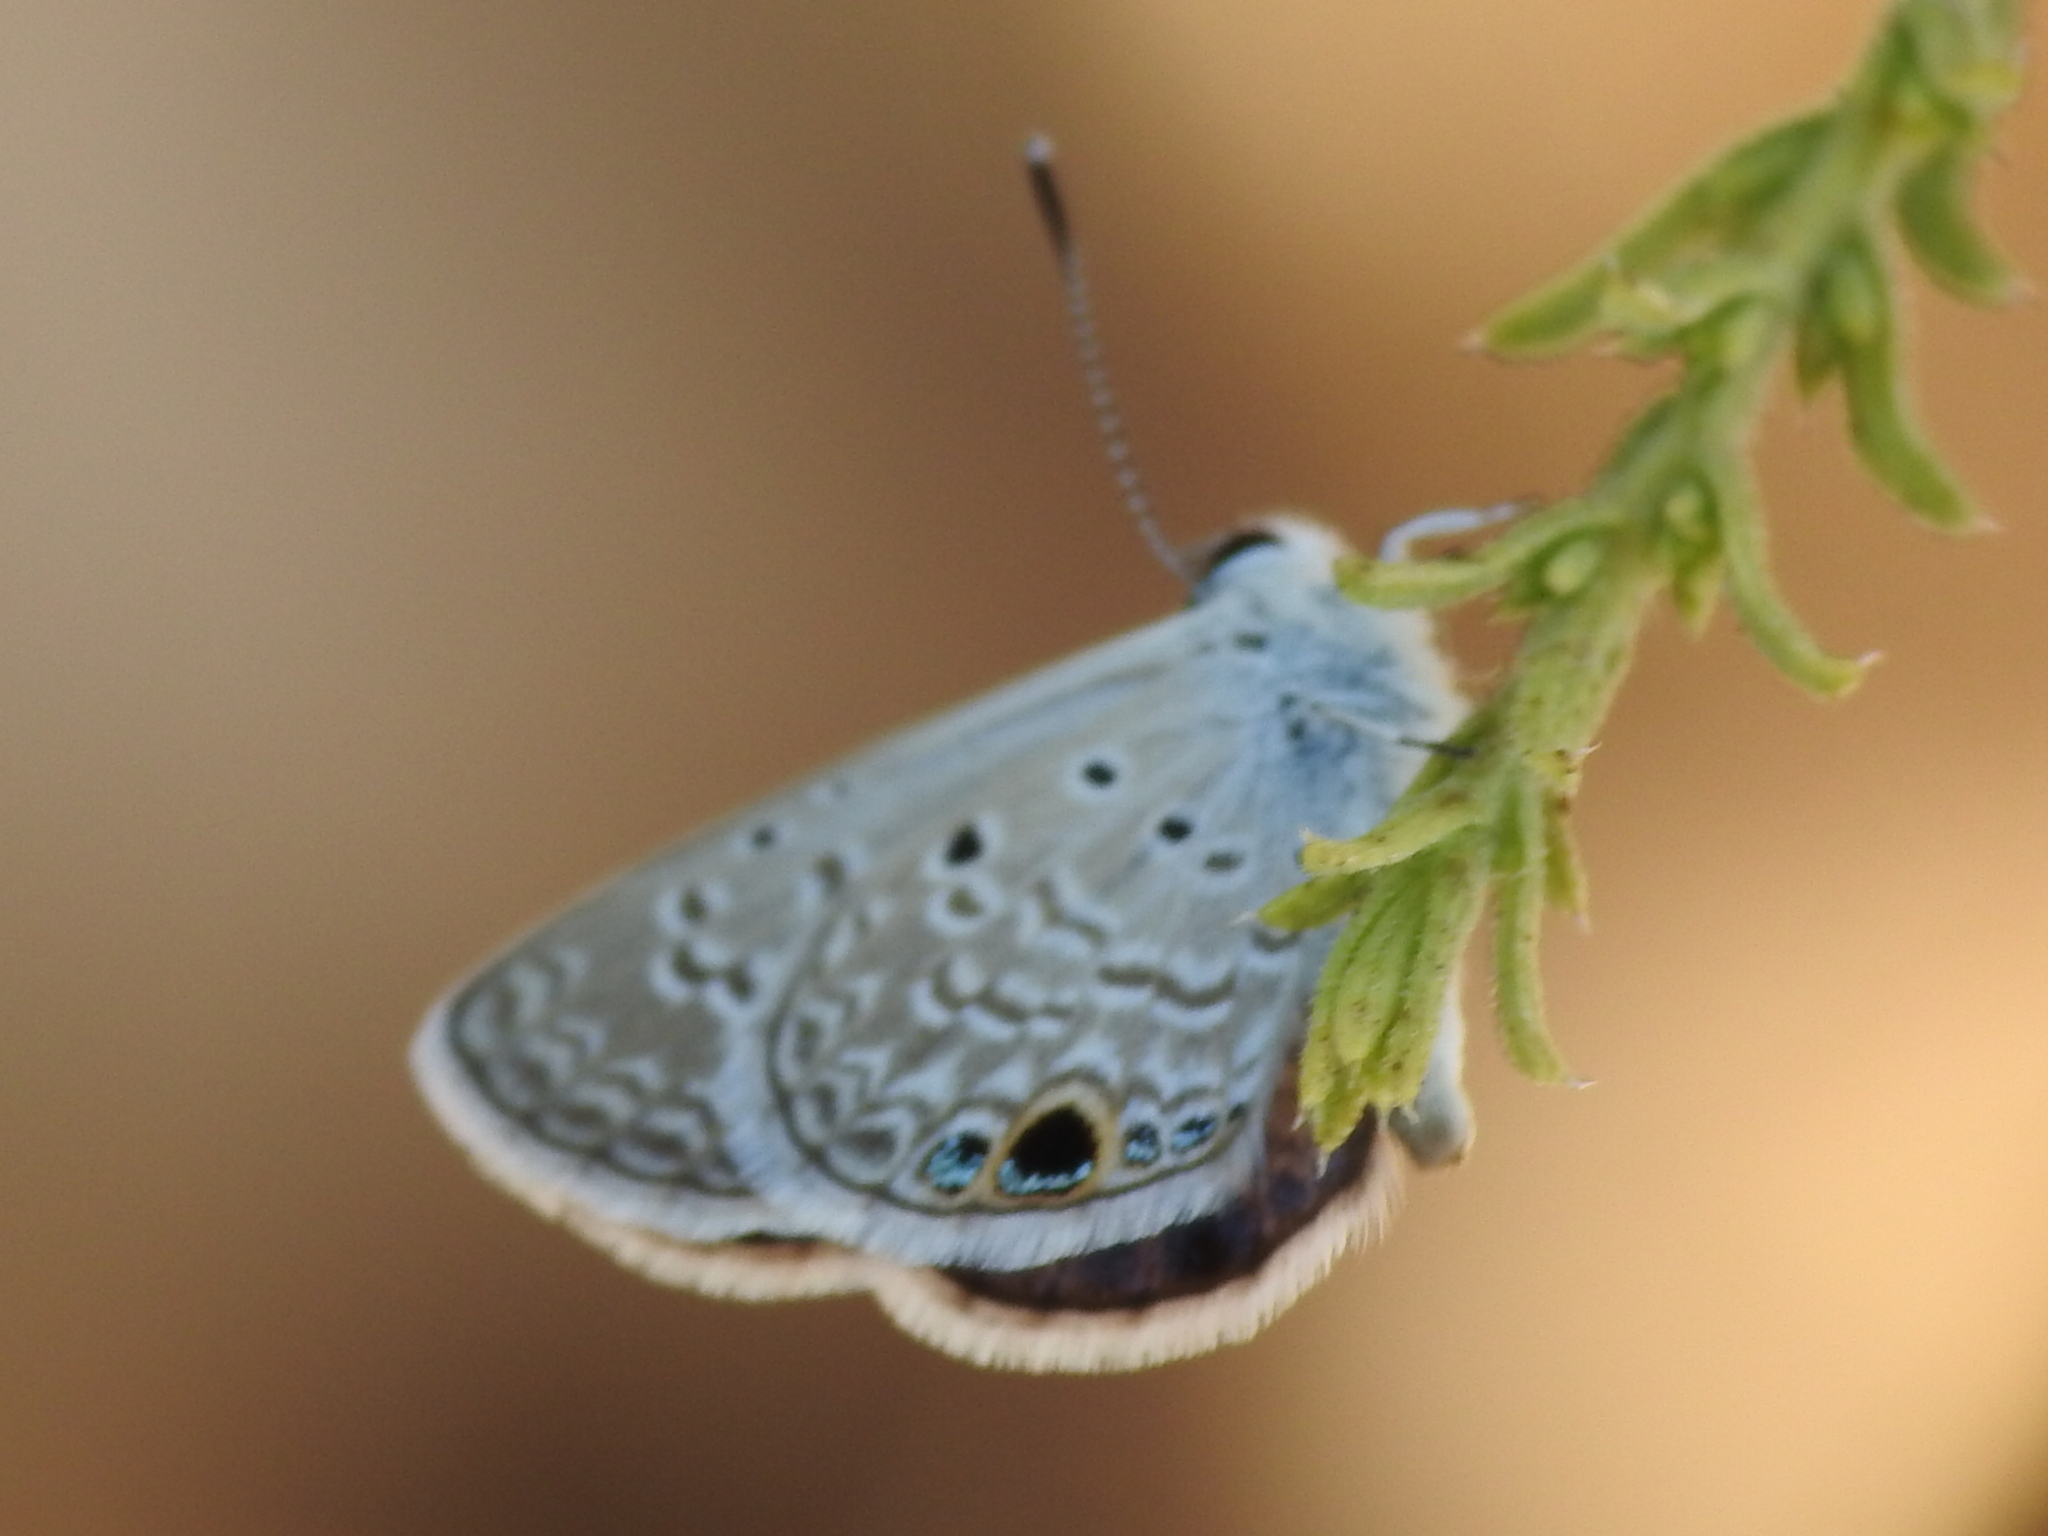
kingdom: Animalia
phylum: Arthropoda
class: Insecta
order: Lepidoptera
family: Lycaenidae
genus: Hemiargus
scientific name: Hemiargus ceraunus
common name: Ceraunus blue
